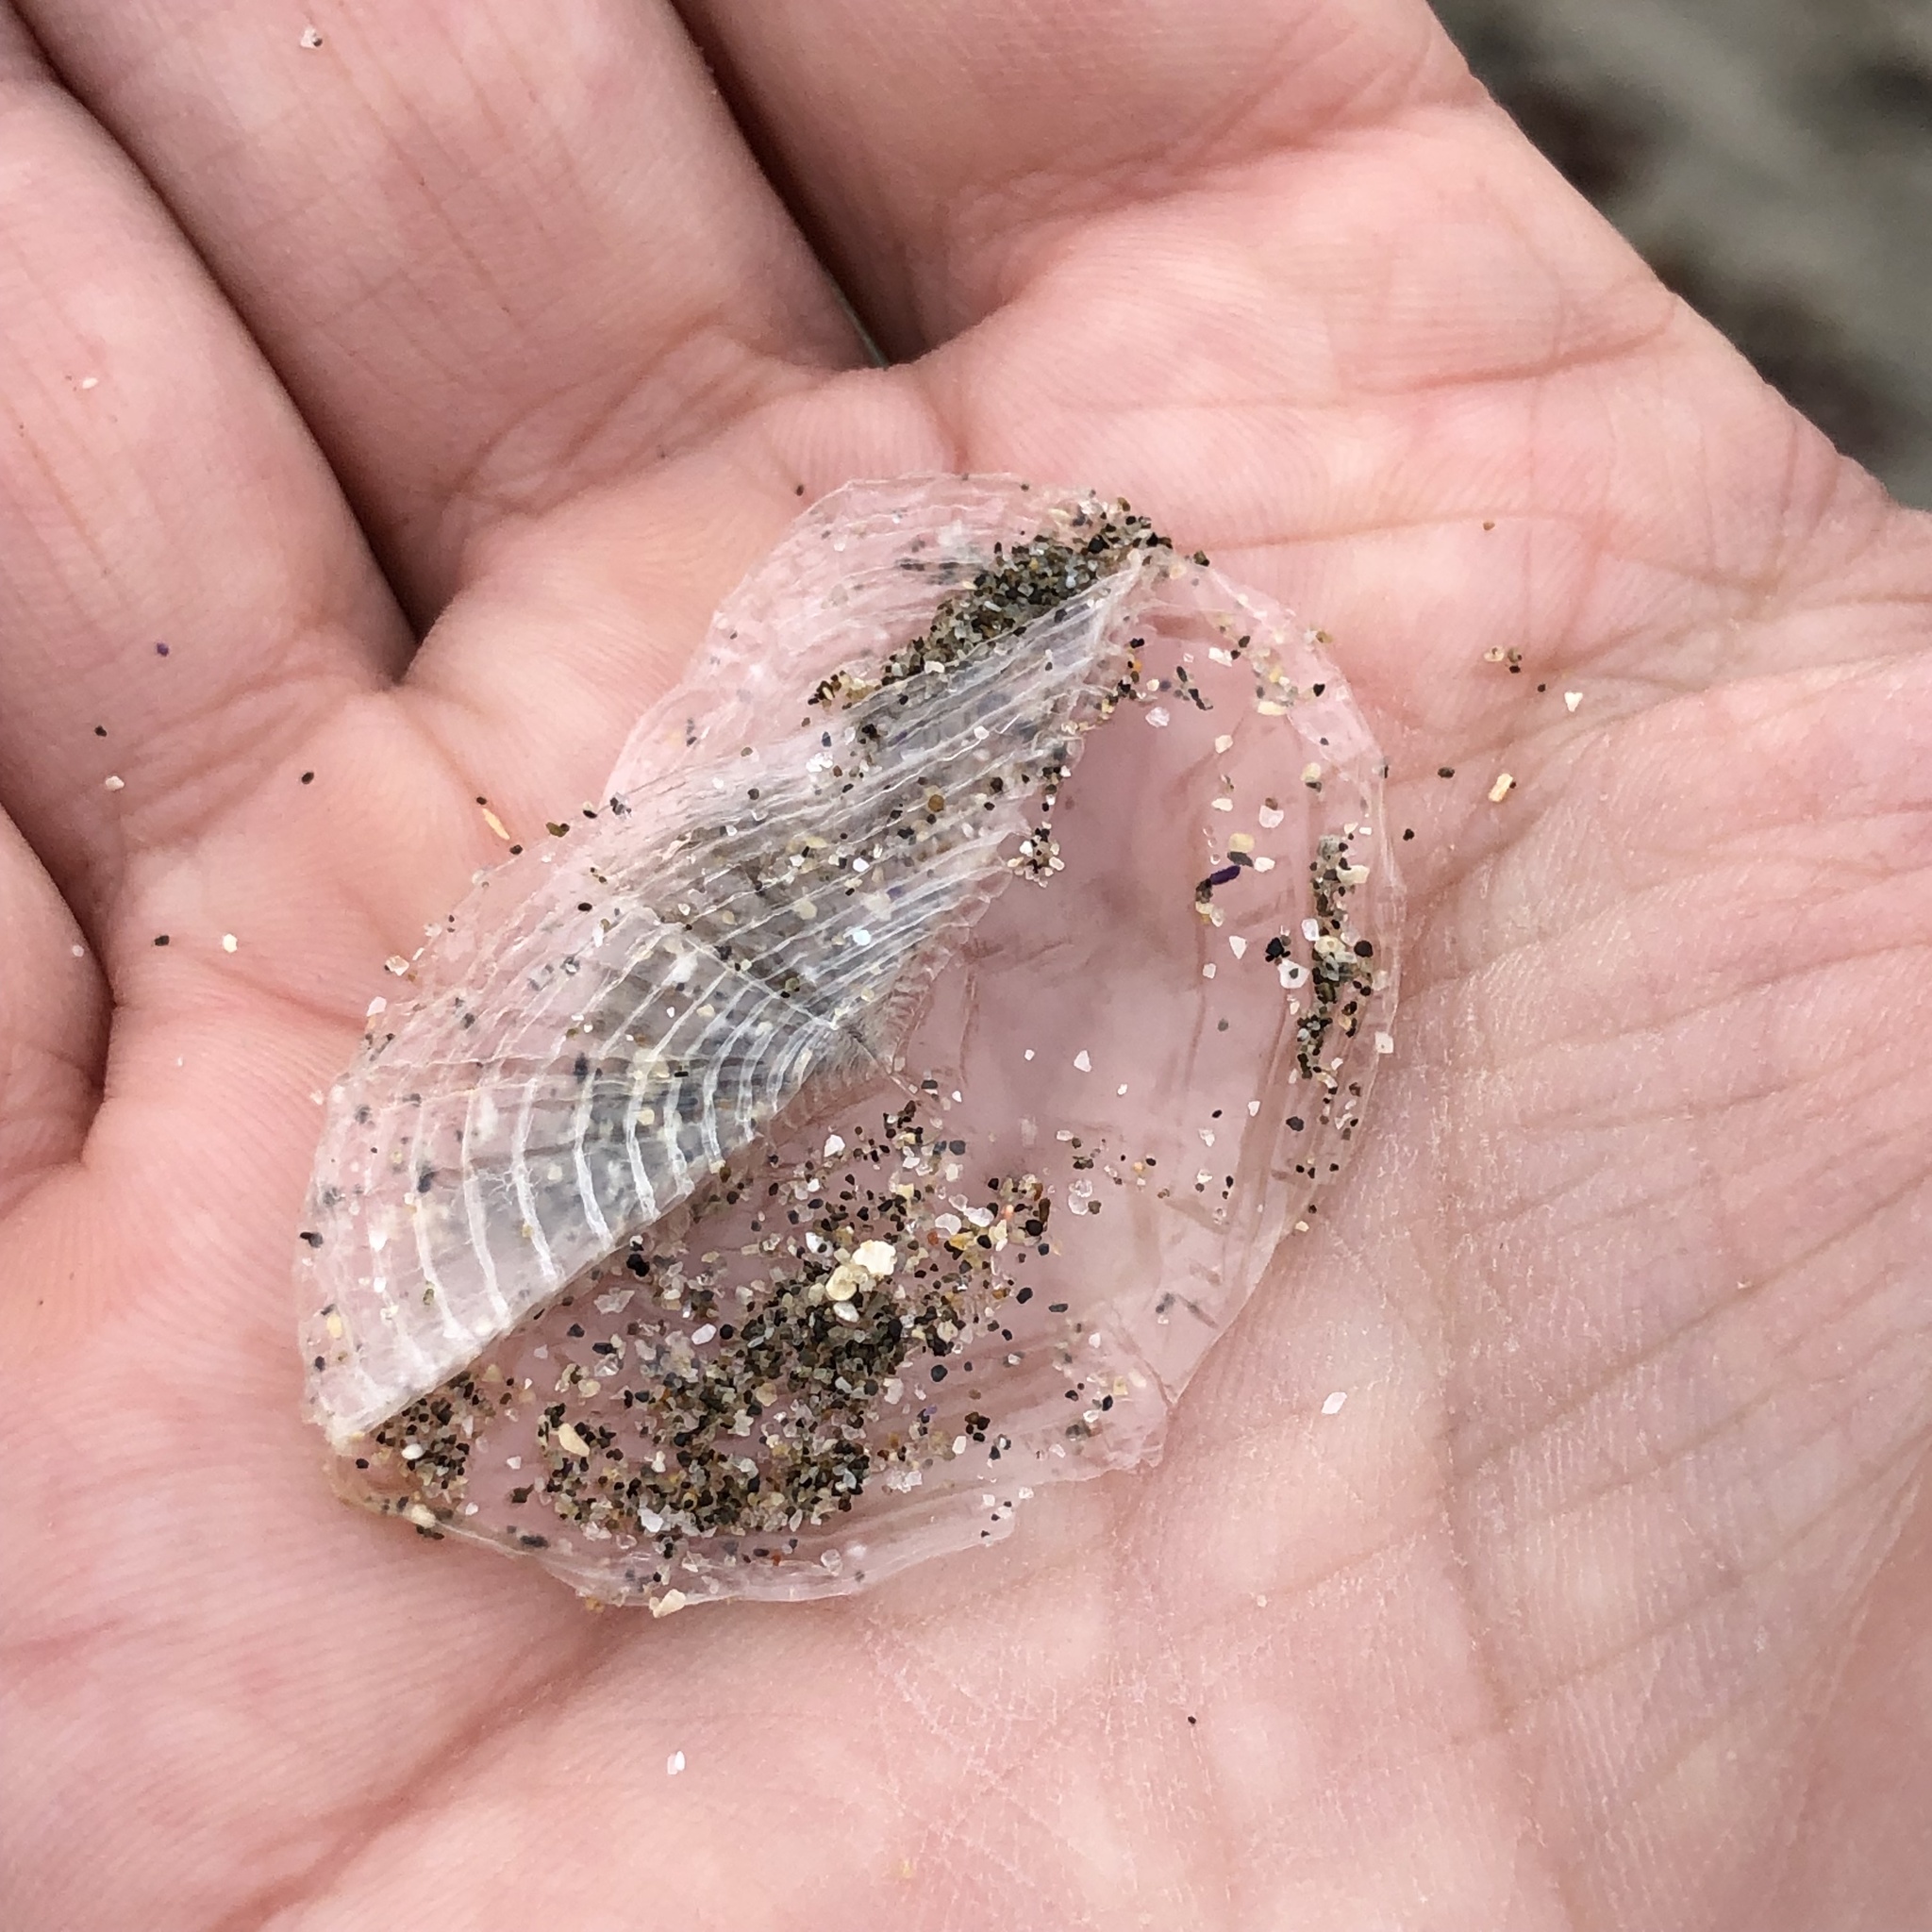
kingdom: Animalia
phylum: Cnidaria
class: Hydrozoa
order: Anthoathecata
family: Porpitidae
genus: Velella
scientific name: Velella velella
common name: By-the-wind-sailor
